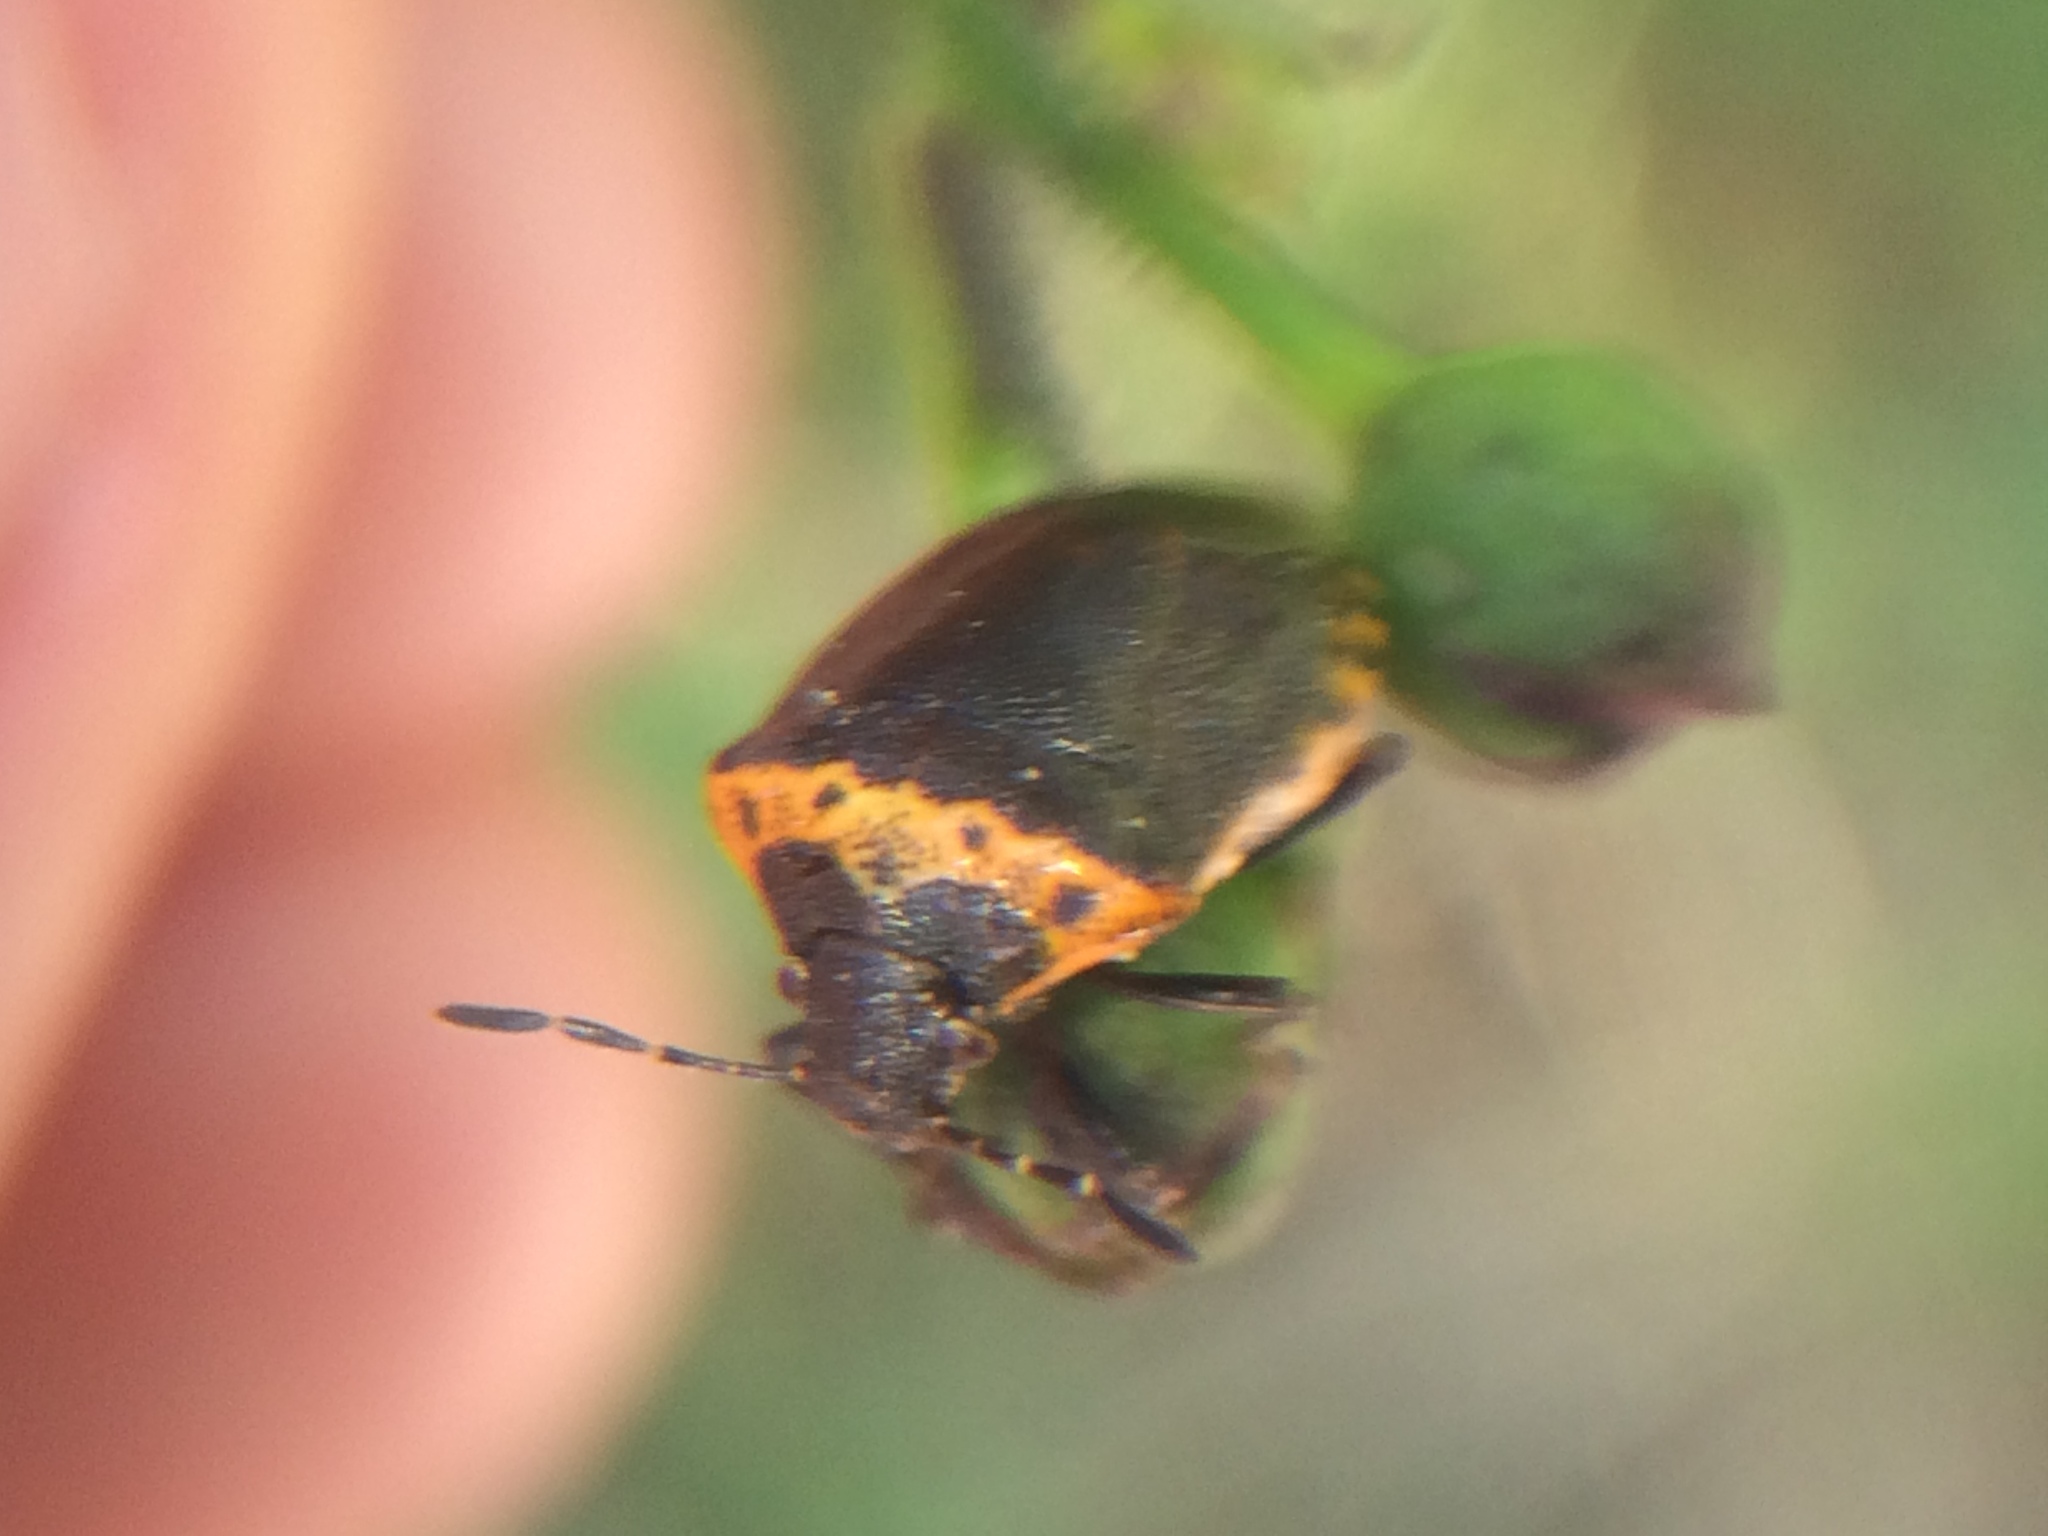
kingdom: Animalia
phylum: Arthropoda
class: Insecta
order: Hemiptera
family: Pentatomidae
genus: Cosmopepla
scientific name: Cosmopepla uhleri
